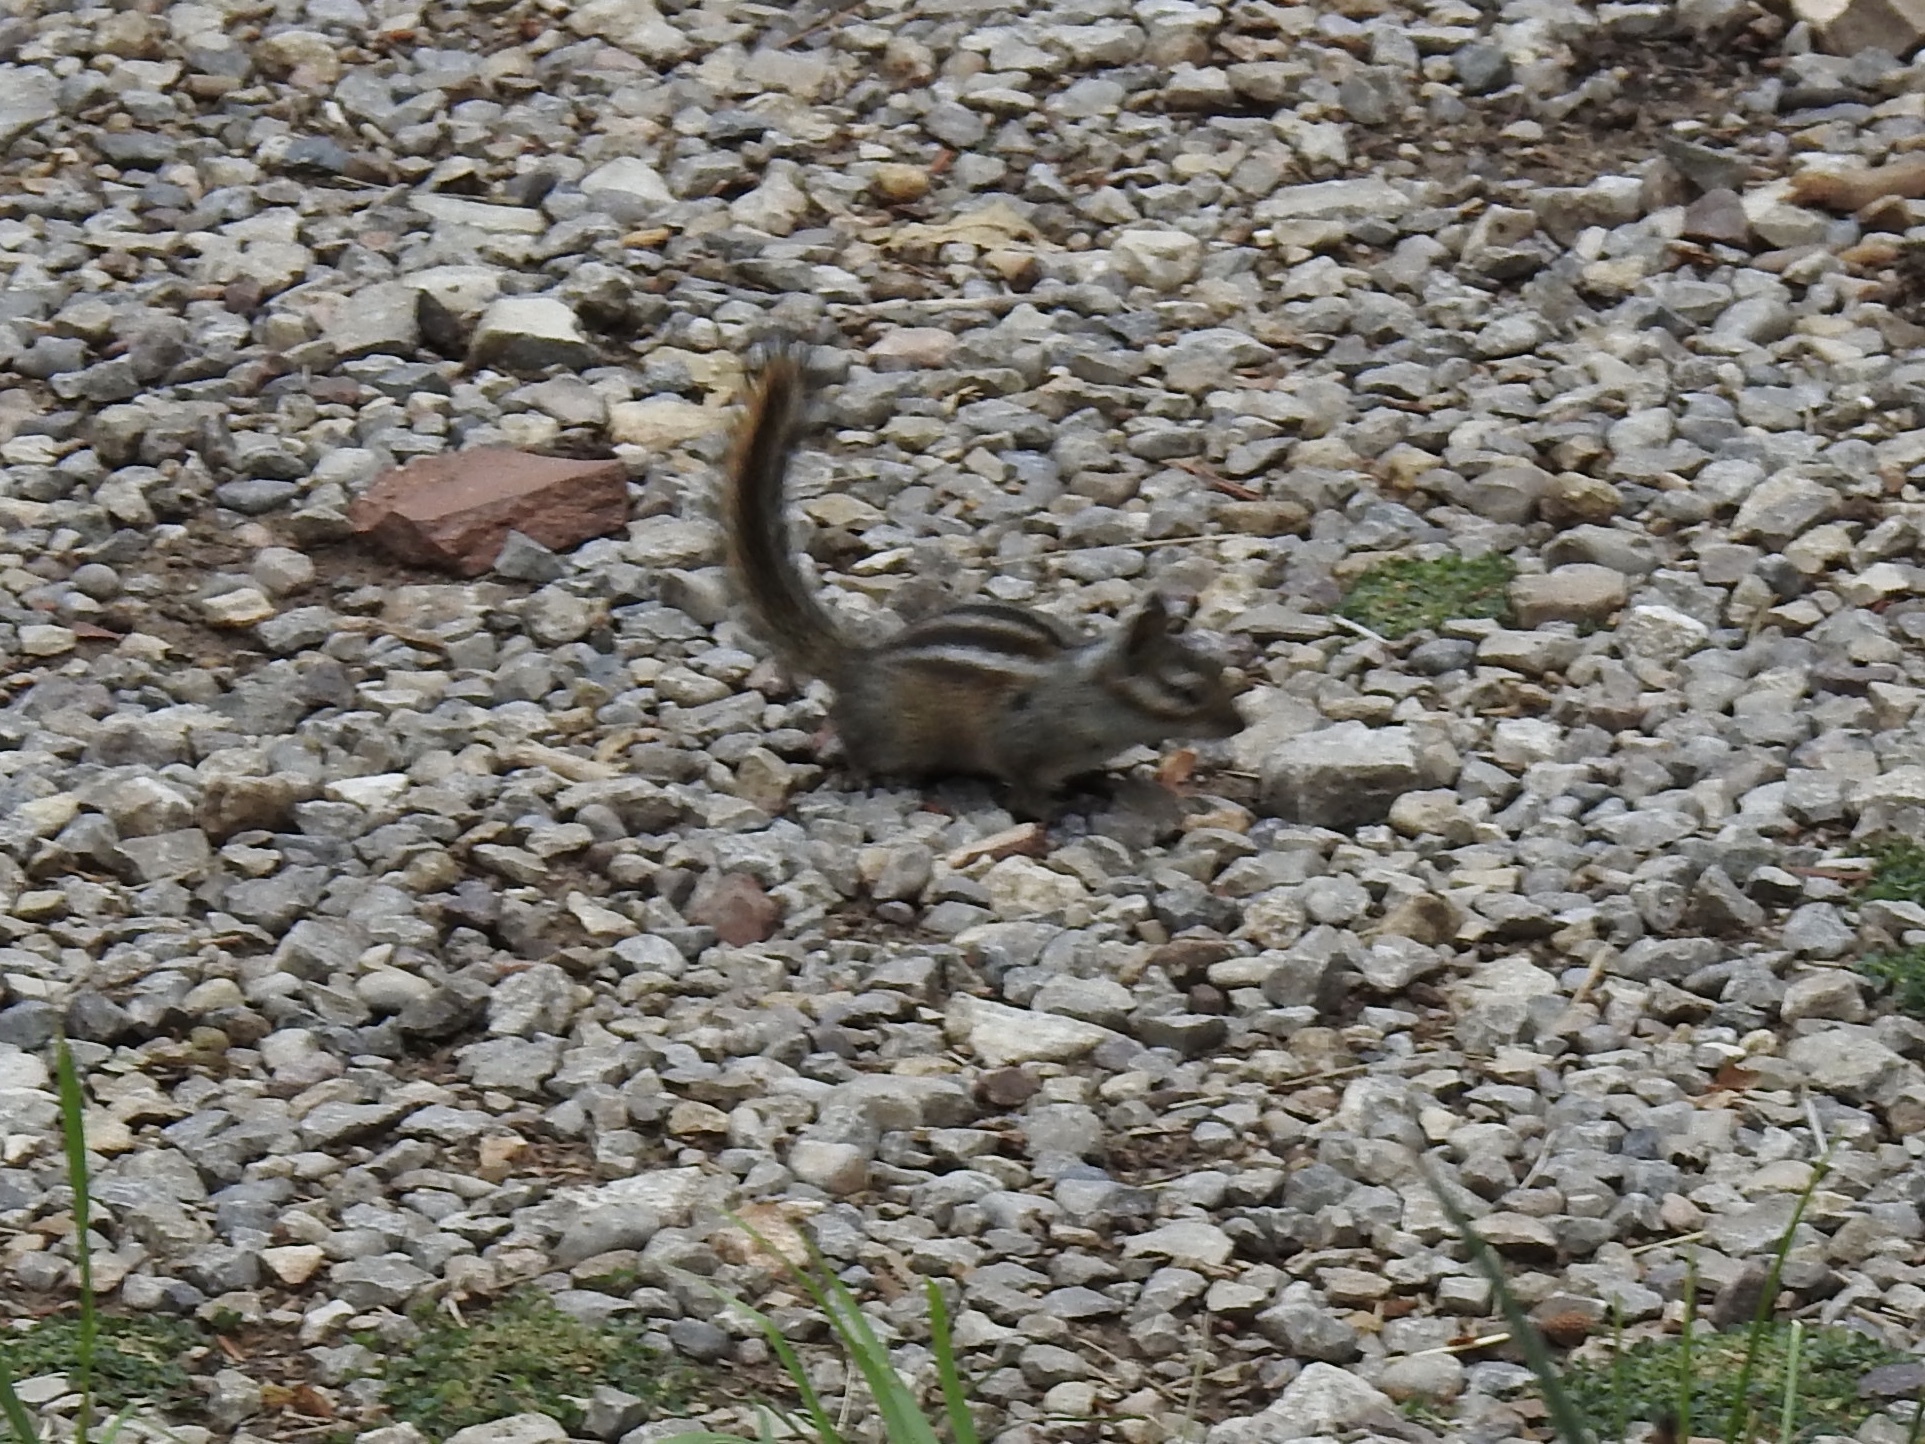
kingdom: Animalia
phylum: Chordata
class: Mammalia
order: Rodentia
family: Sciuridae
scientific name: Sciuridae
